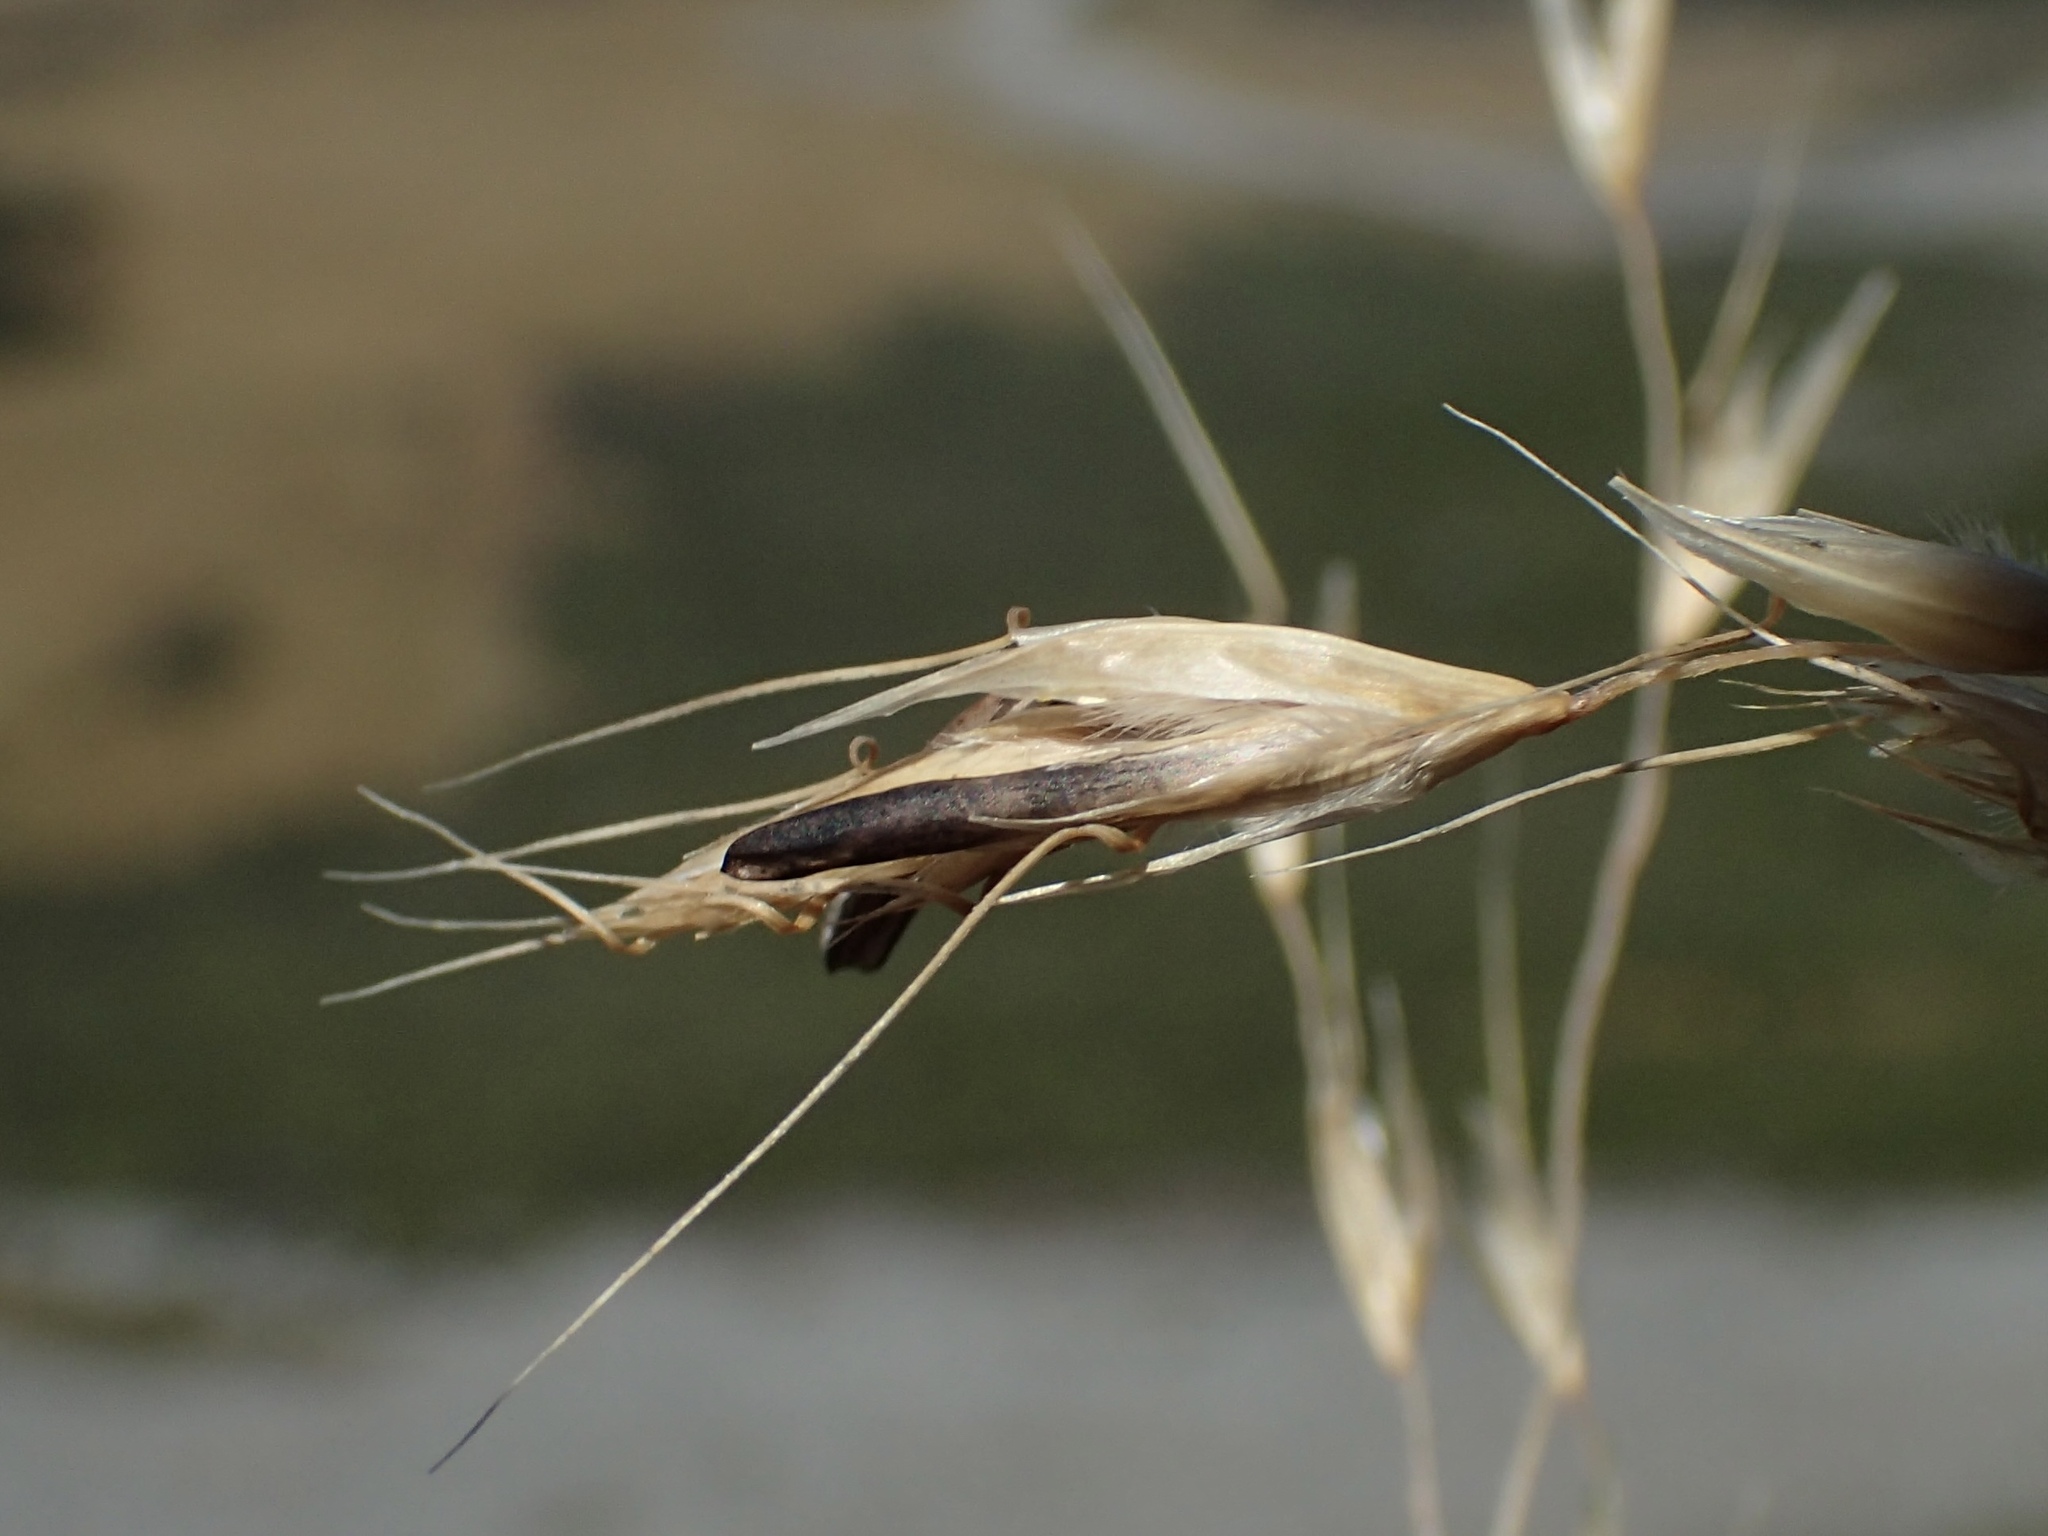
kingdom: Plantae
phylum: Tracheophyta
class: Liliopsida
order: Poales
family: Poaceae
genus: Chionochloa
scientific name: Chionochloa flavescens
